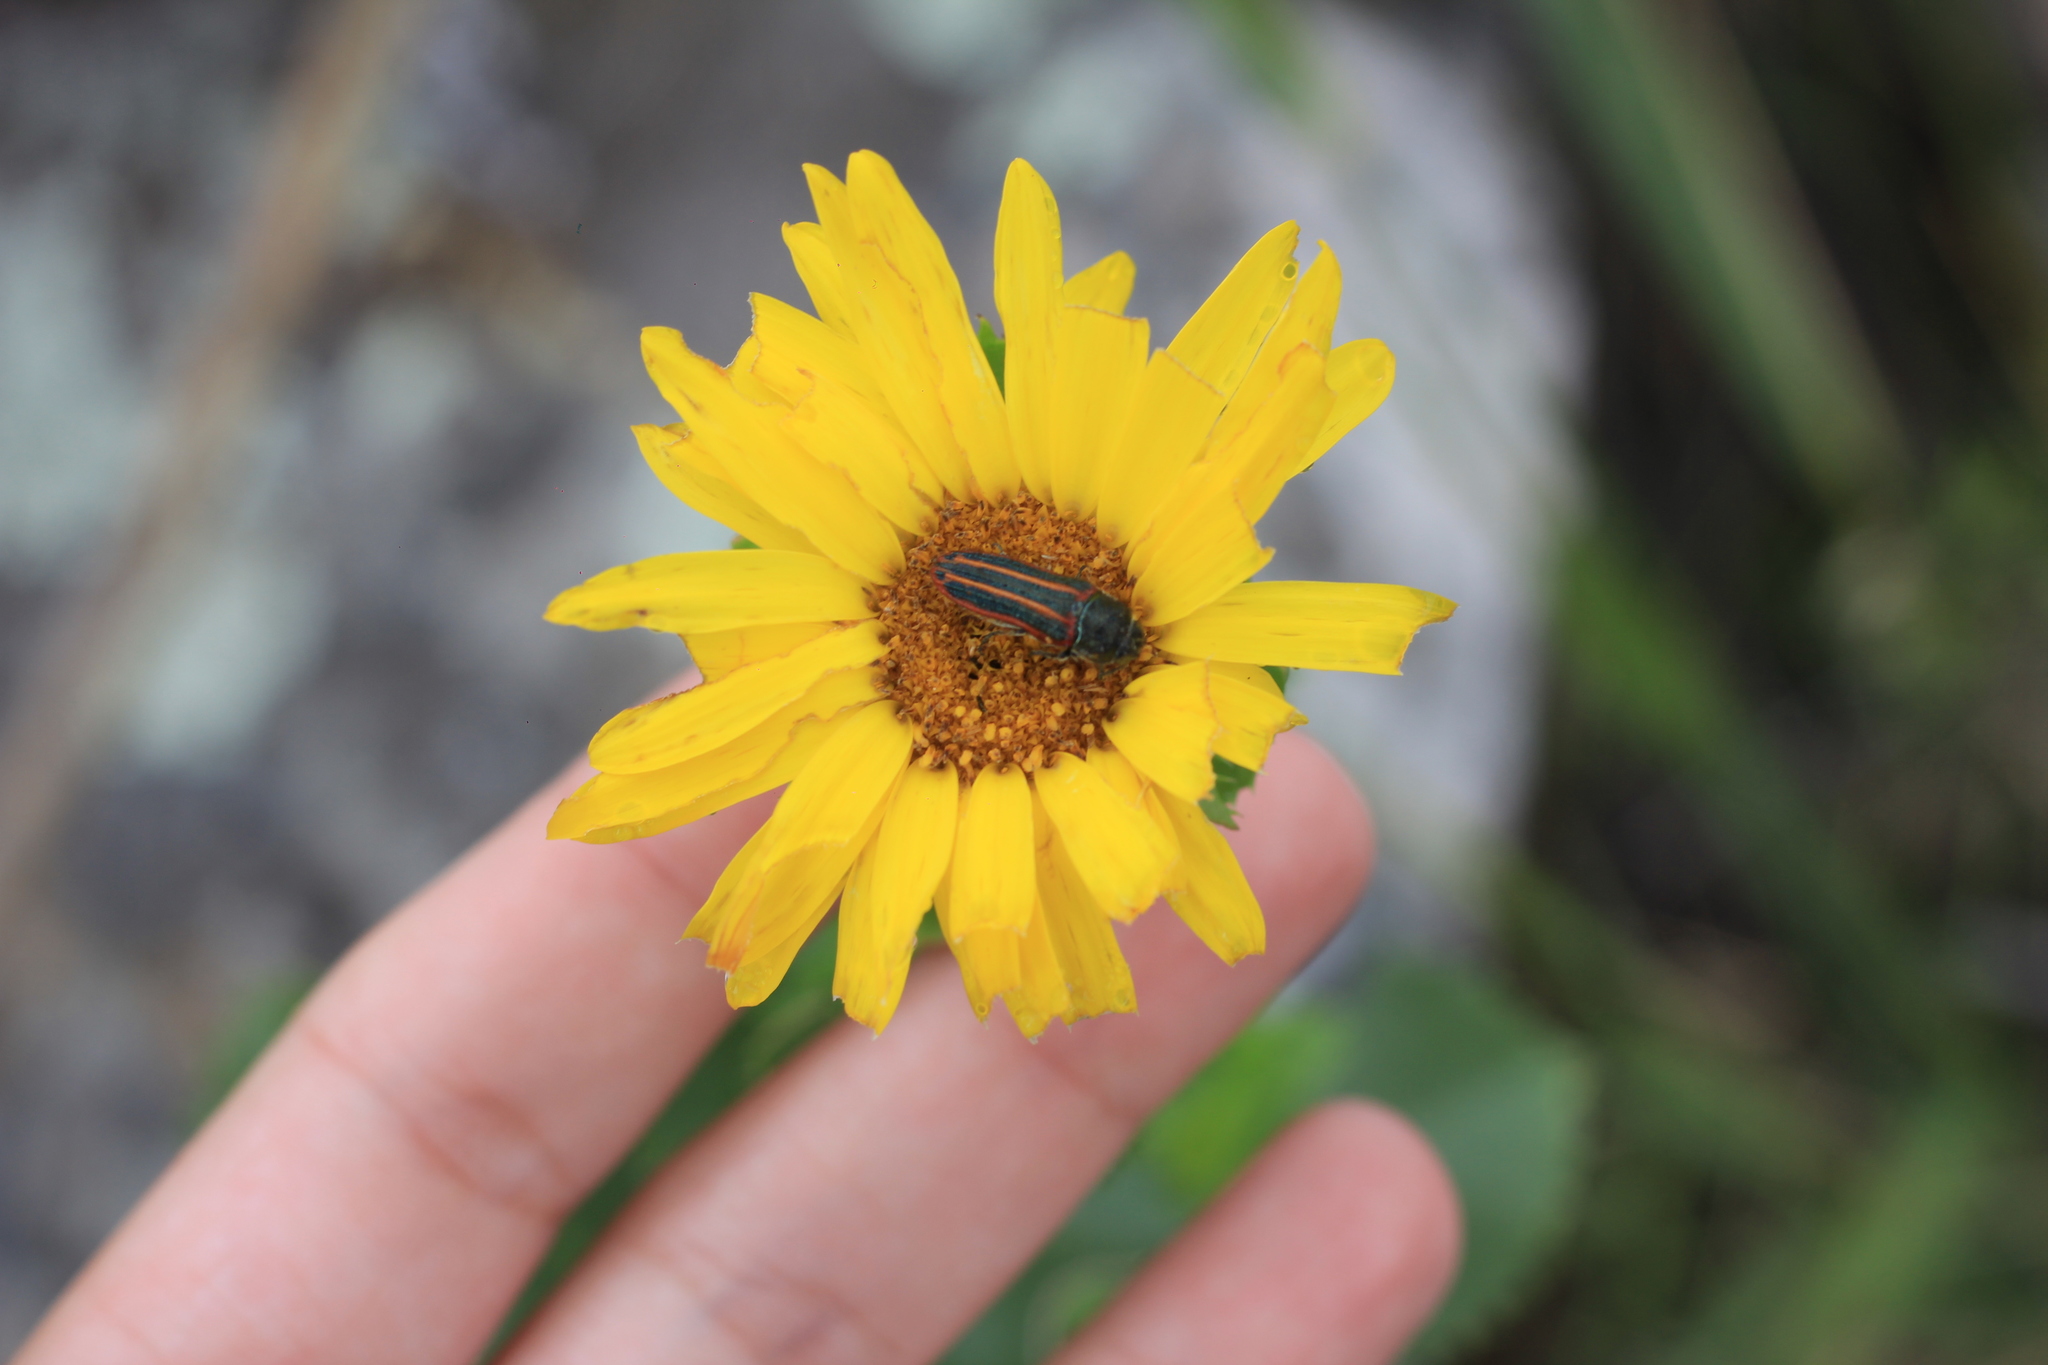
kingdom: Animalia
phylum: Arthropoda
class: Insecta
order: Coleoptera
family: Buprestidae
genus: Lasionota
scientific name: Lasionota alternans
